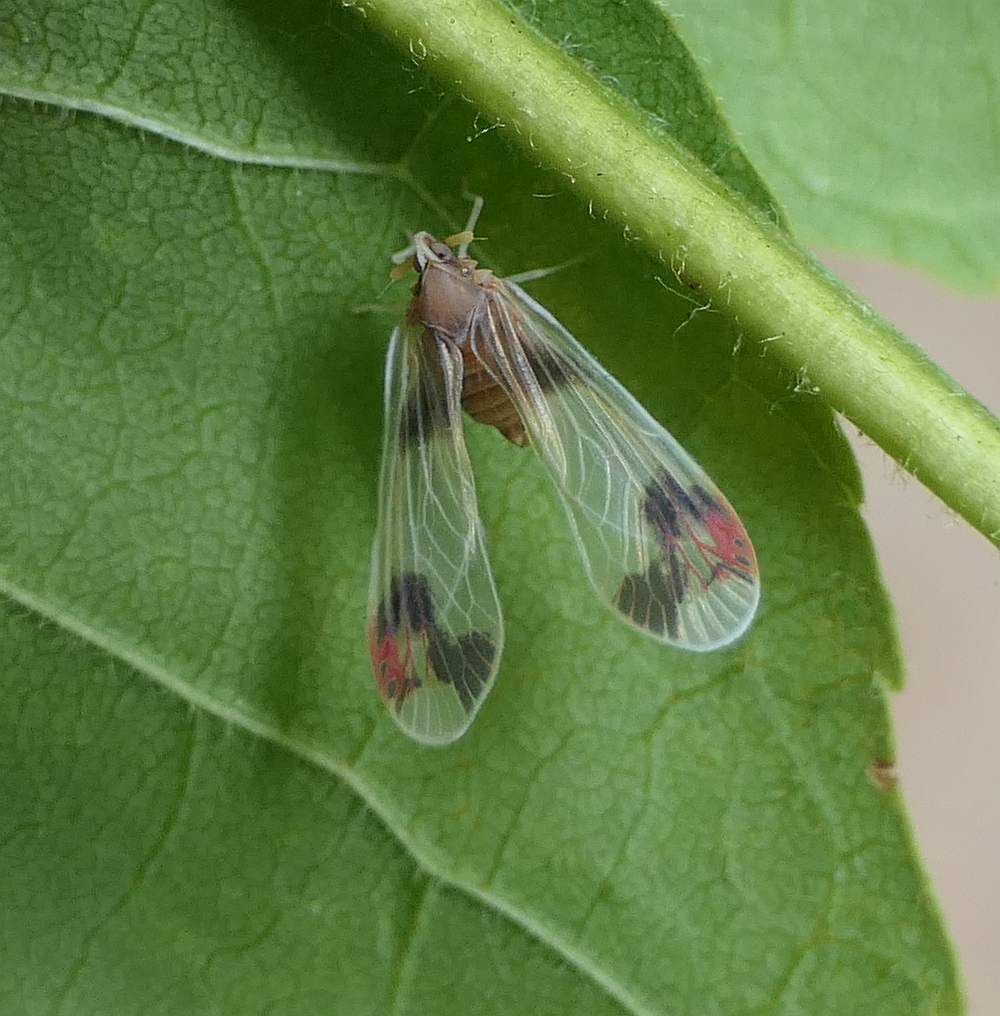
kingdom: Animalia
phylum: Arthropoda
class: Insecta
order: Hemiptera
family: Derbidae
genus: Anotia
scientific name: Anotia uhleri
